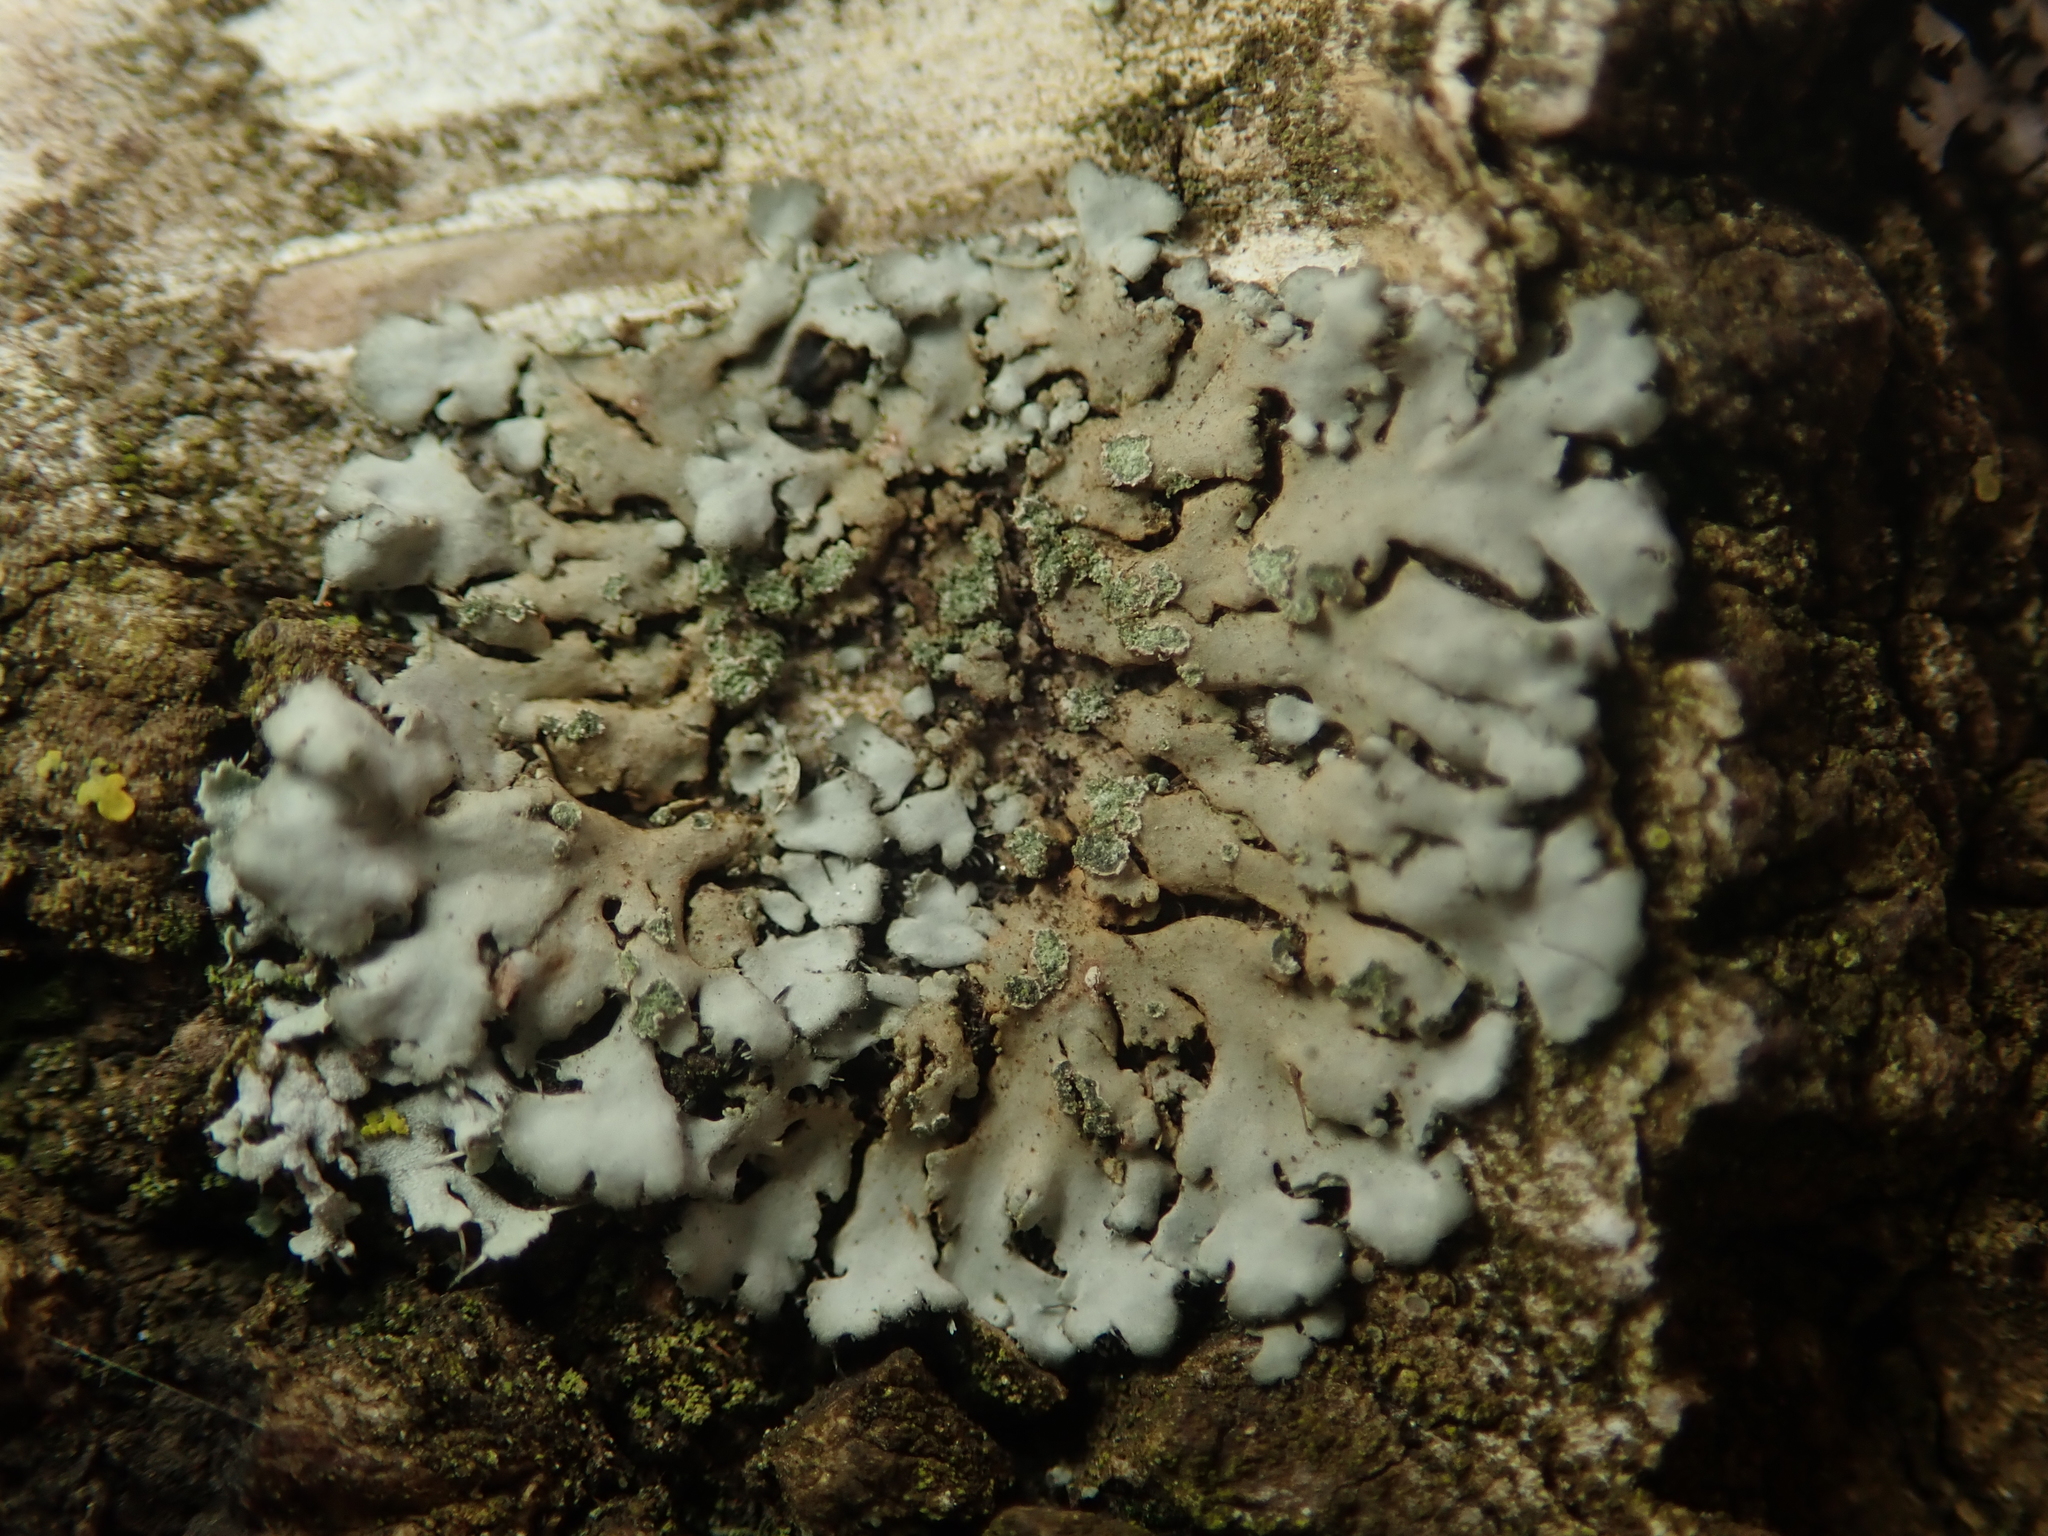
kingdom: Fungi
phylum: Ascomycota
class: Lecanoromycetes
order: Caliciales
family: Physciaceae
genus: Phaeophyscia
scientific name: Phaeophyscia orbicularis
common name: Mealy shadow lichen
